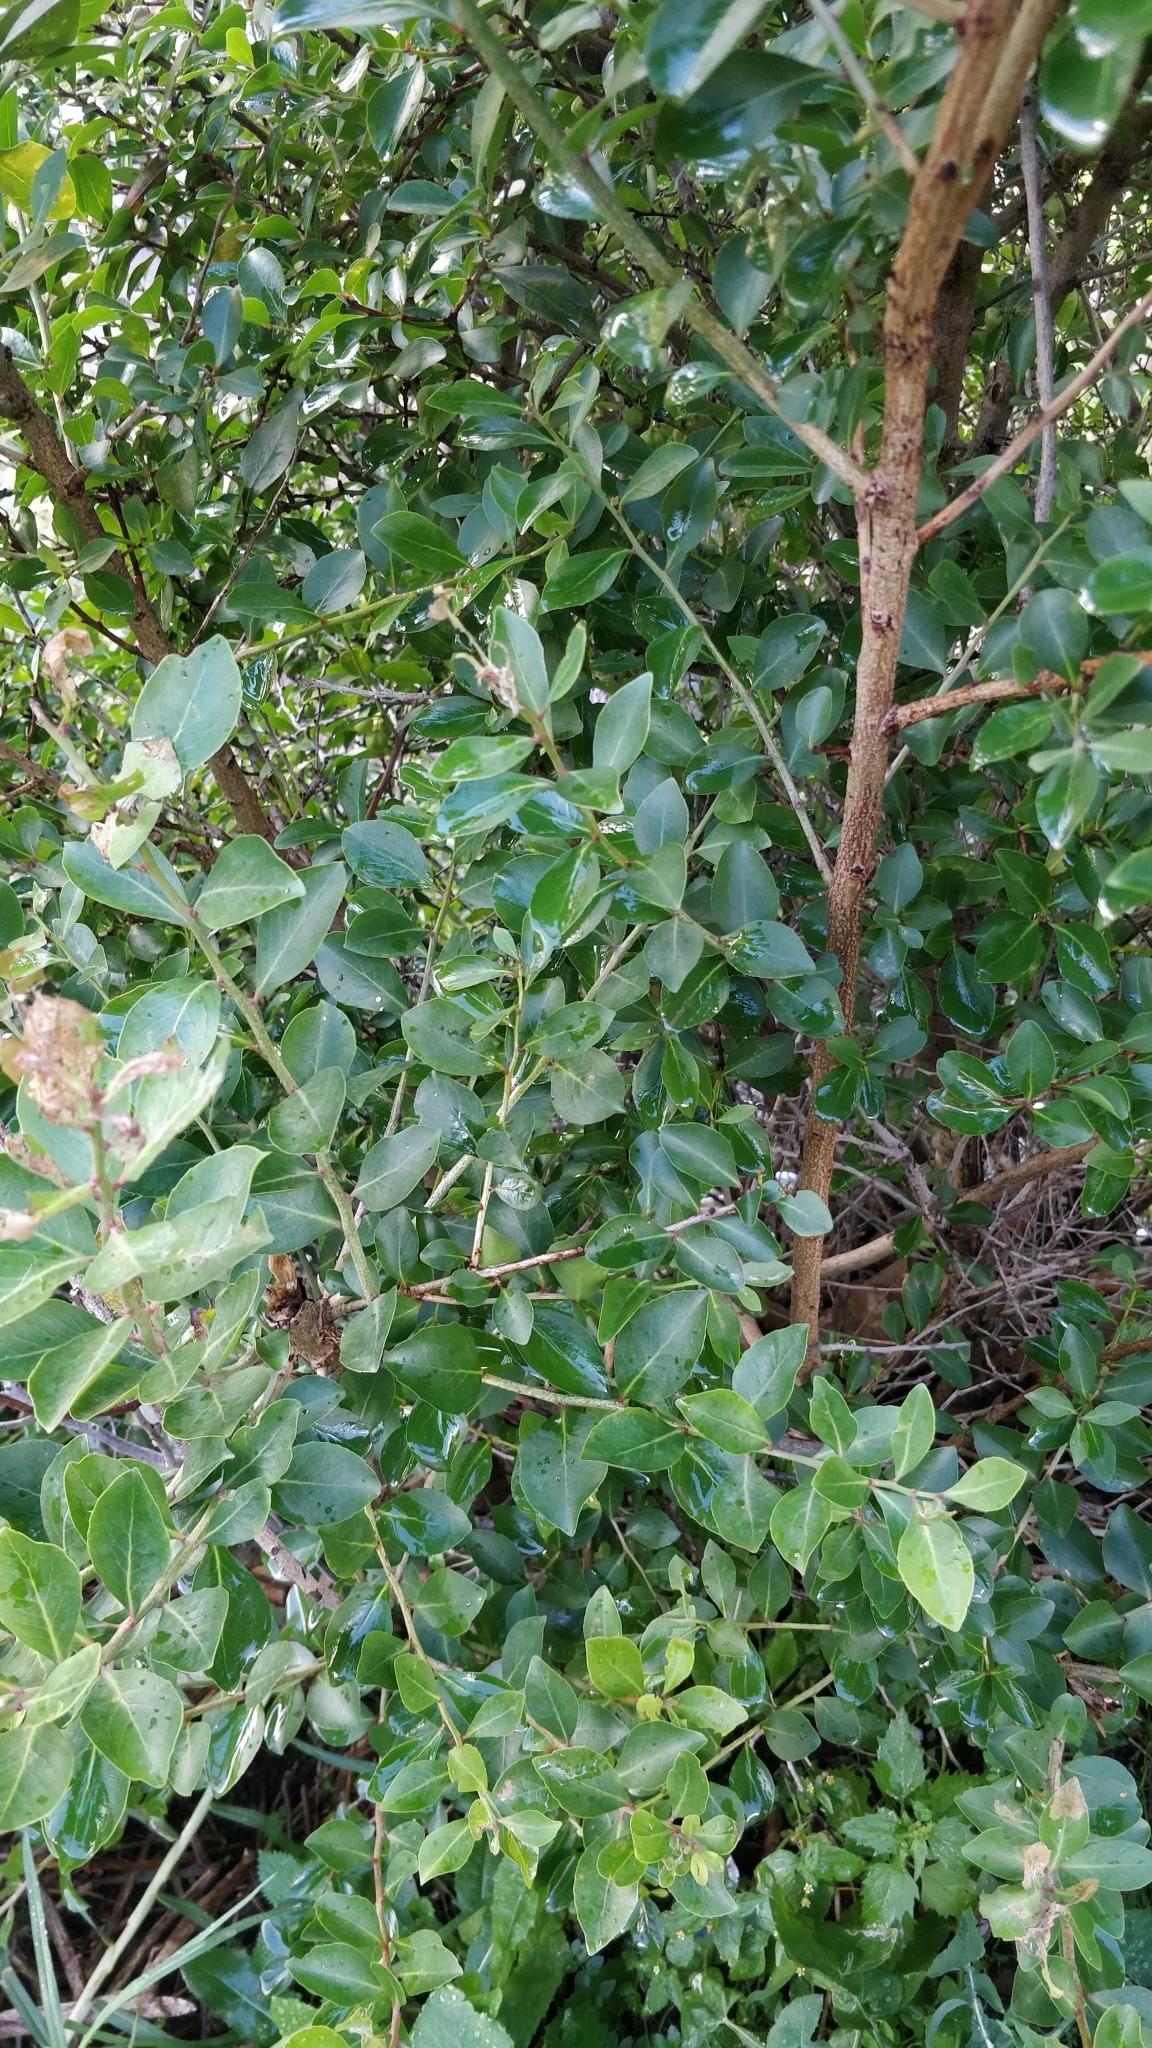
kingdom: Plantae
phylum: Tracheophyta
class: Magnoliopsida
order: Celastrales
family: Celastraceae
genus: Gymnosporia
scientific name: Gymnosporia dryandri
